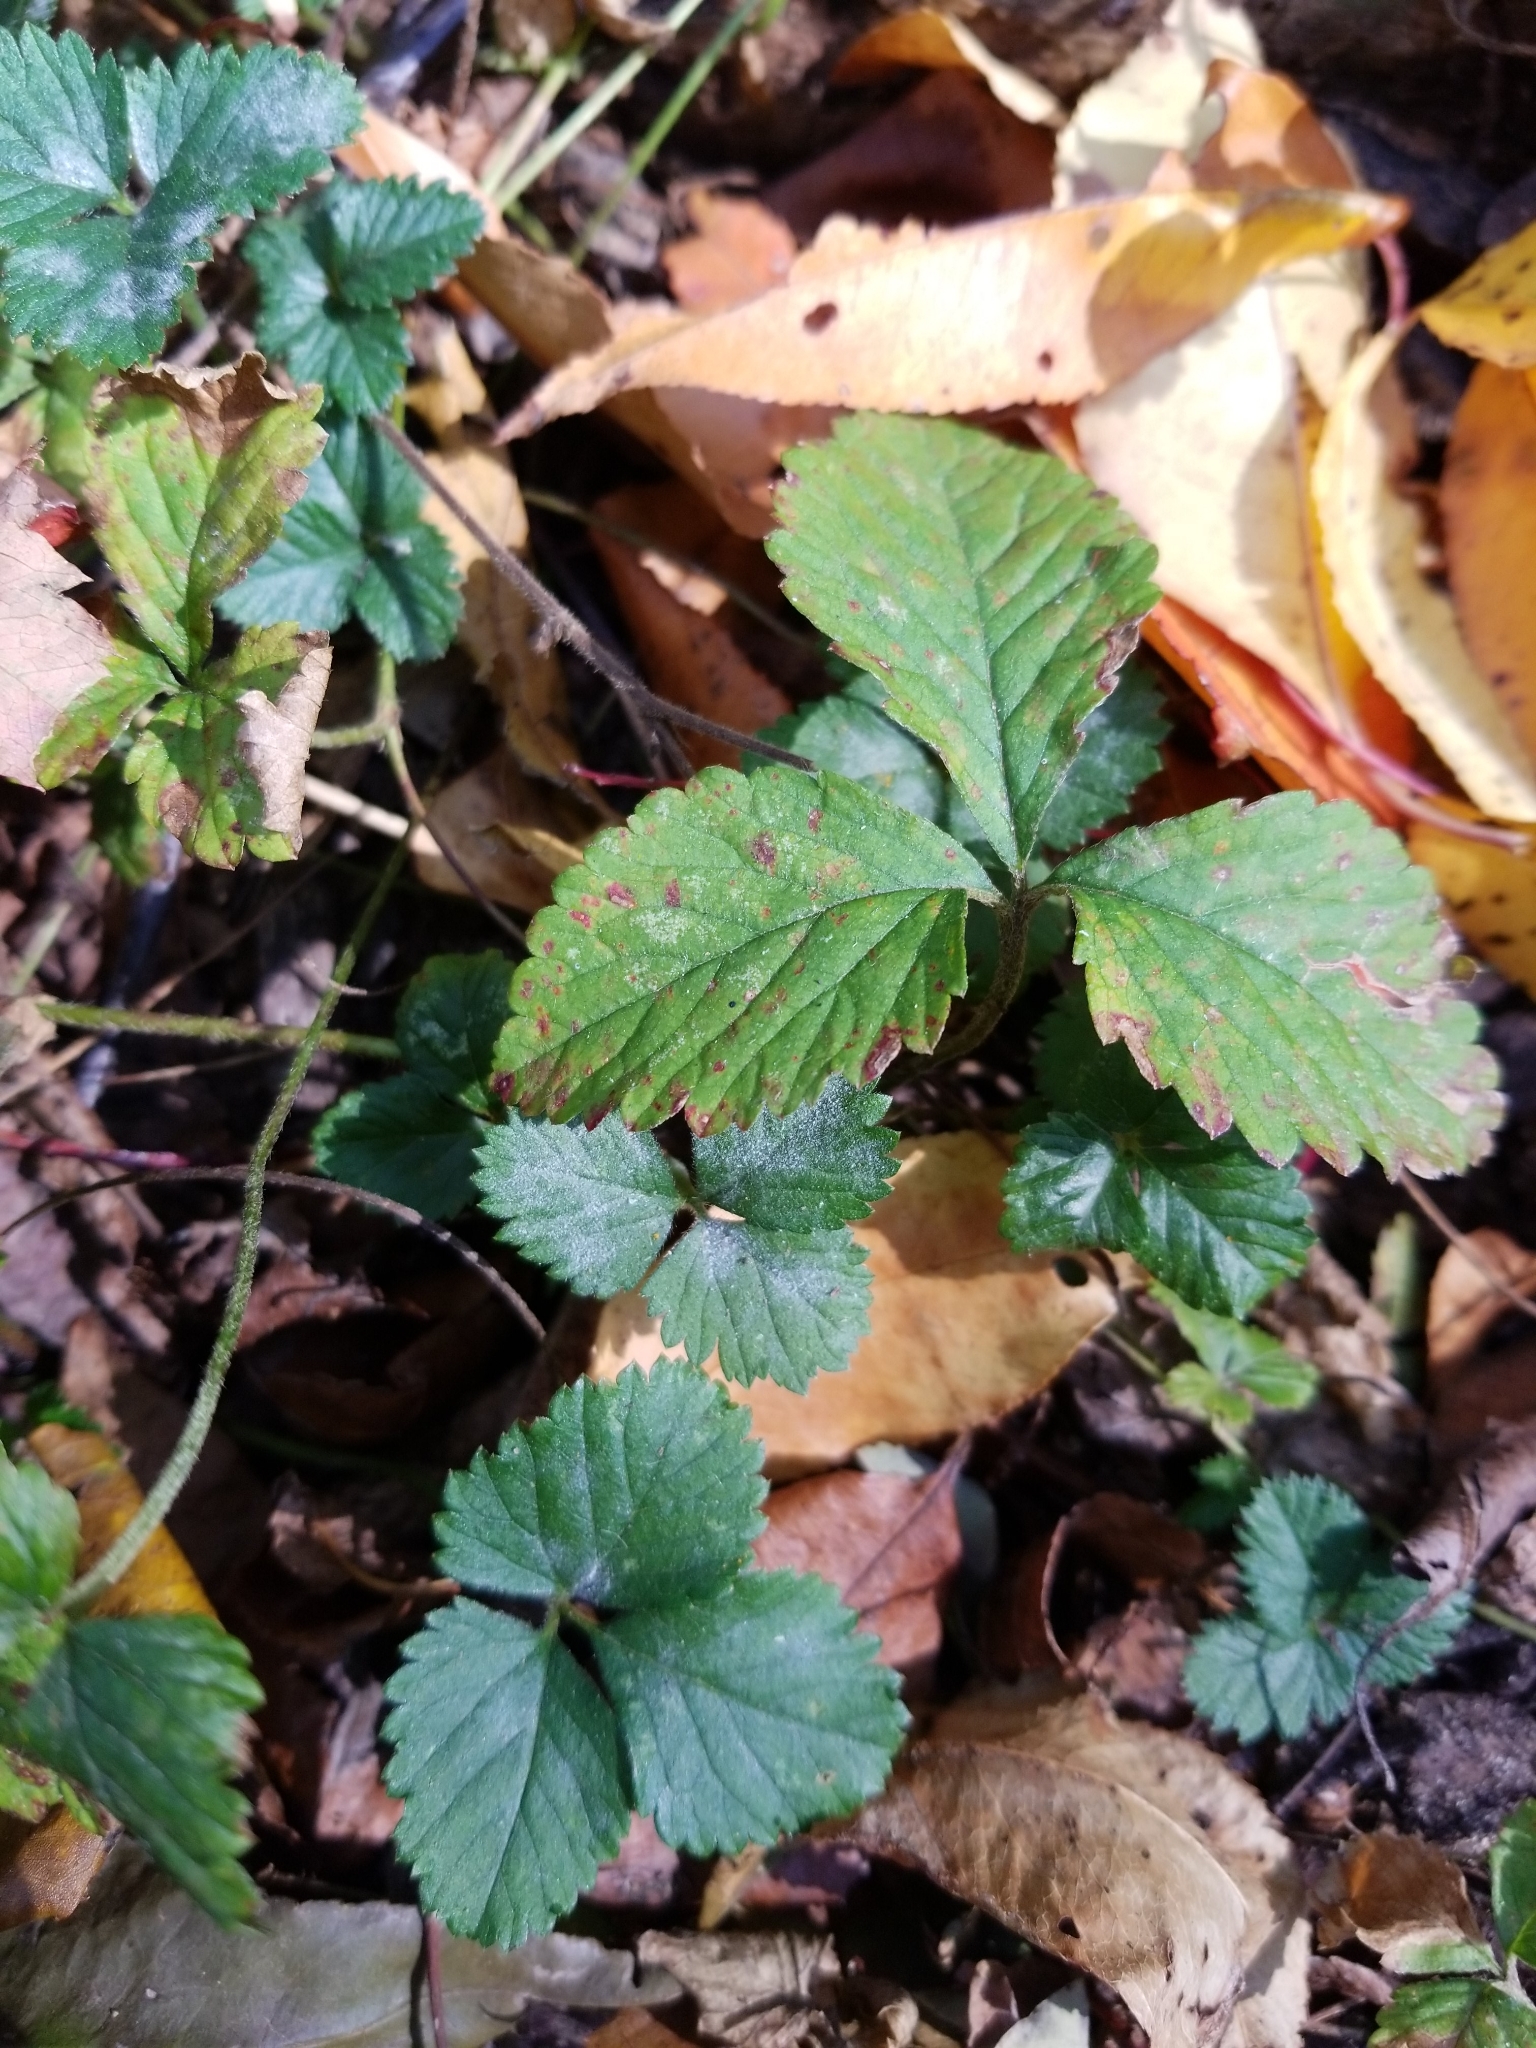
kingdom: Plantae
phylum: Tracheophyta
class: Magnoliopsida
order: Rosales
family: Rosaceae
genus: Potentilla
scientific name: Potentilla indica
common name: Yellow-flowered strawberry
